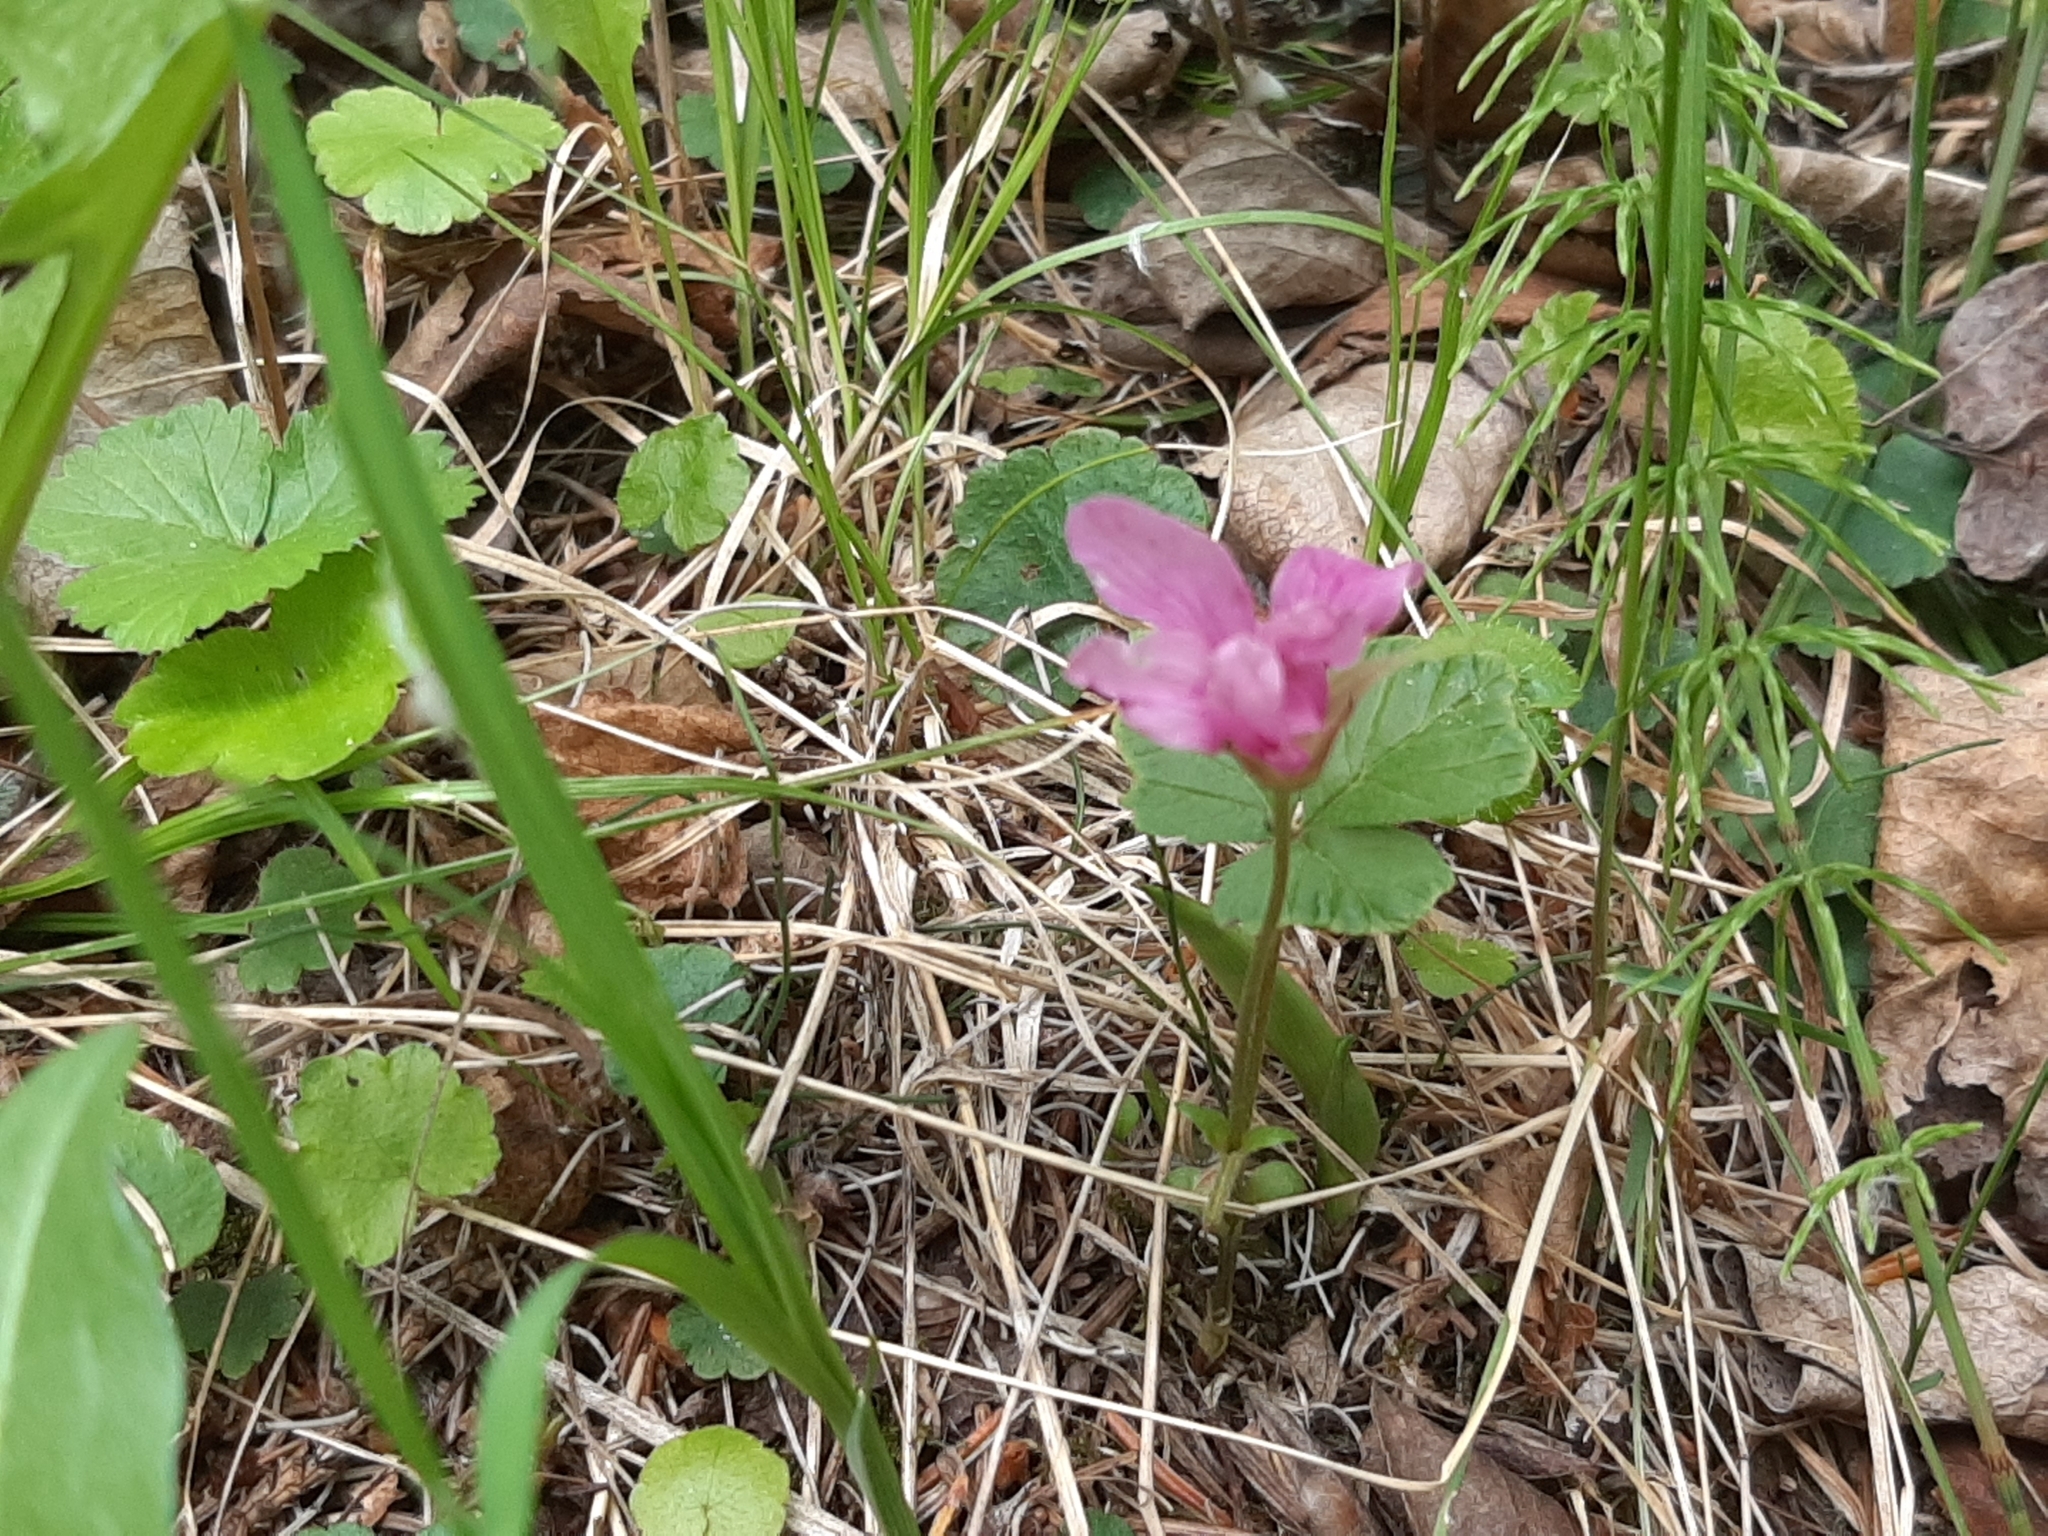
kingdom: Plantae
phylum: Tracheophyta
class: Magnoliopsida
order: Rosales
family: Rosaceae
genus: Rubus
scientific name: Rubus arcticus
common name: Arctic bramble
